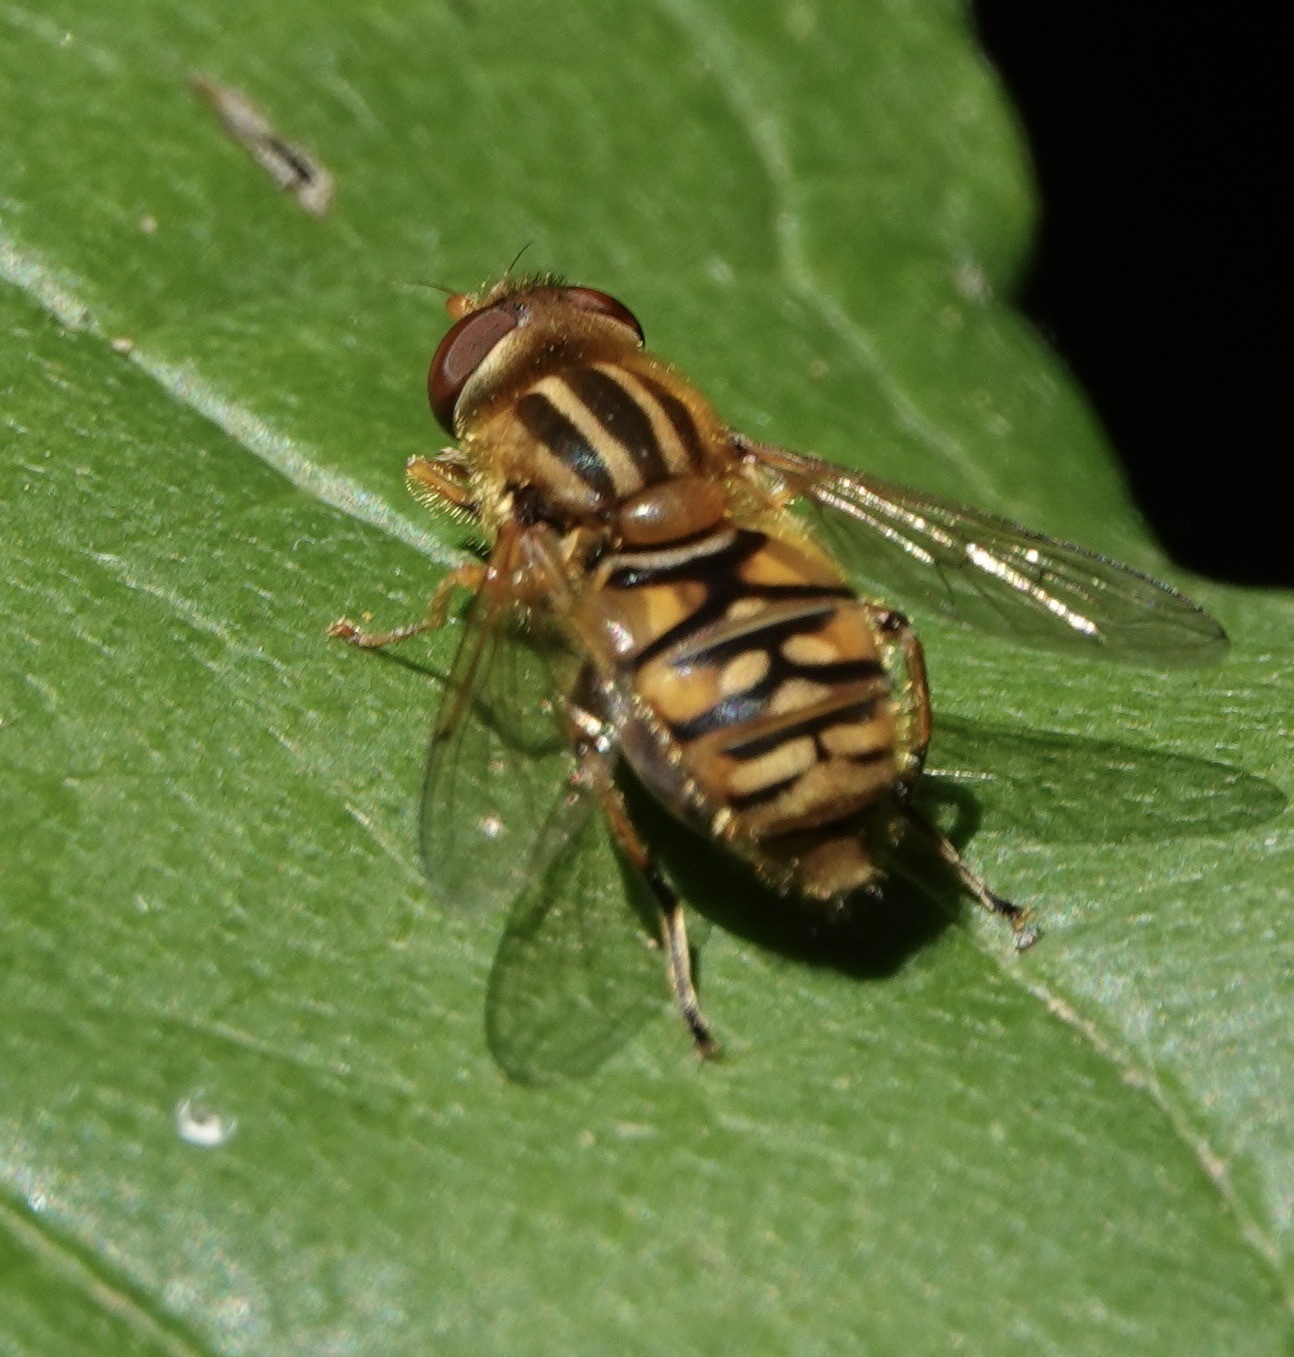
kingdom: Animalia
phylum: Arthropoda
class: Insecta
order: Diptera
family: Syrphidae
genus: Parhelophilus
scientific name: Parhelophilus
